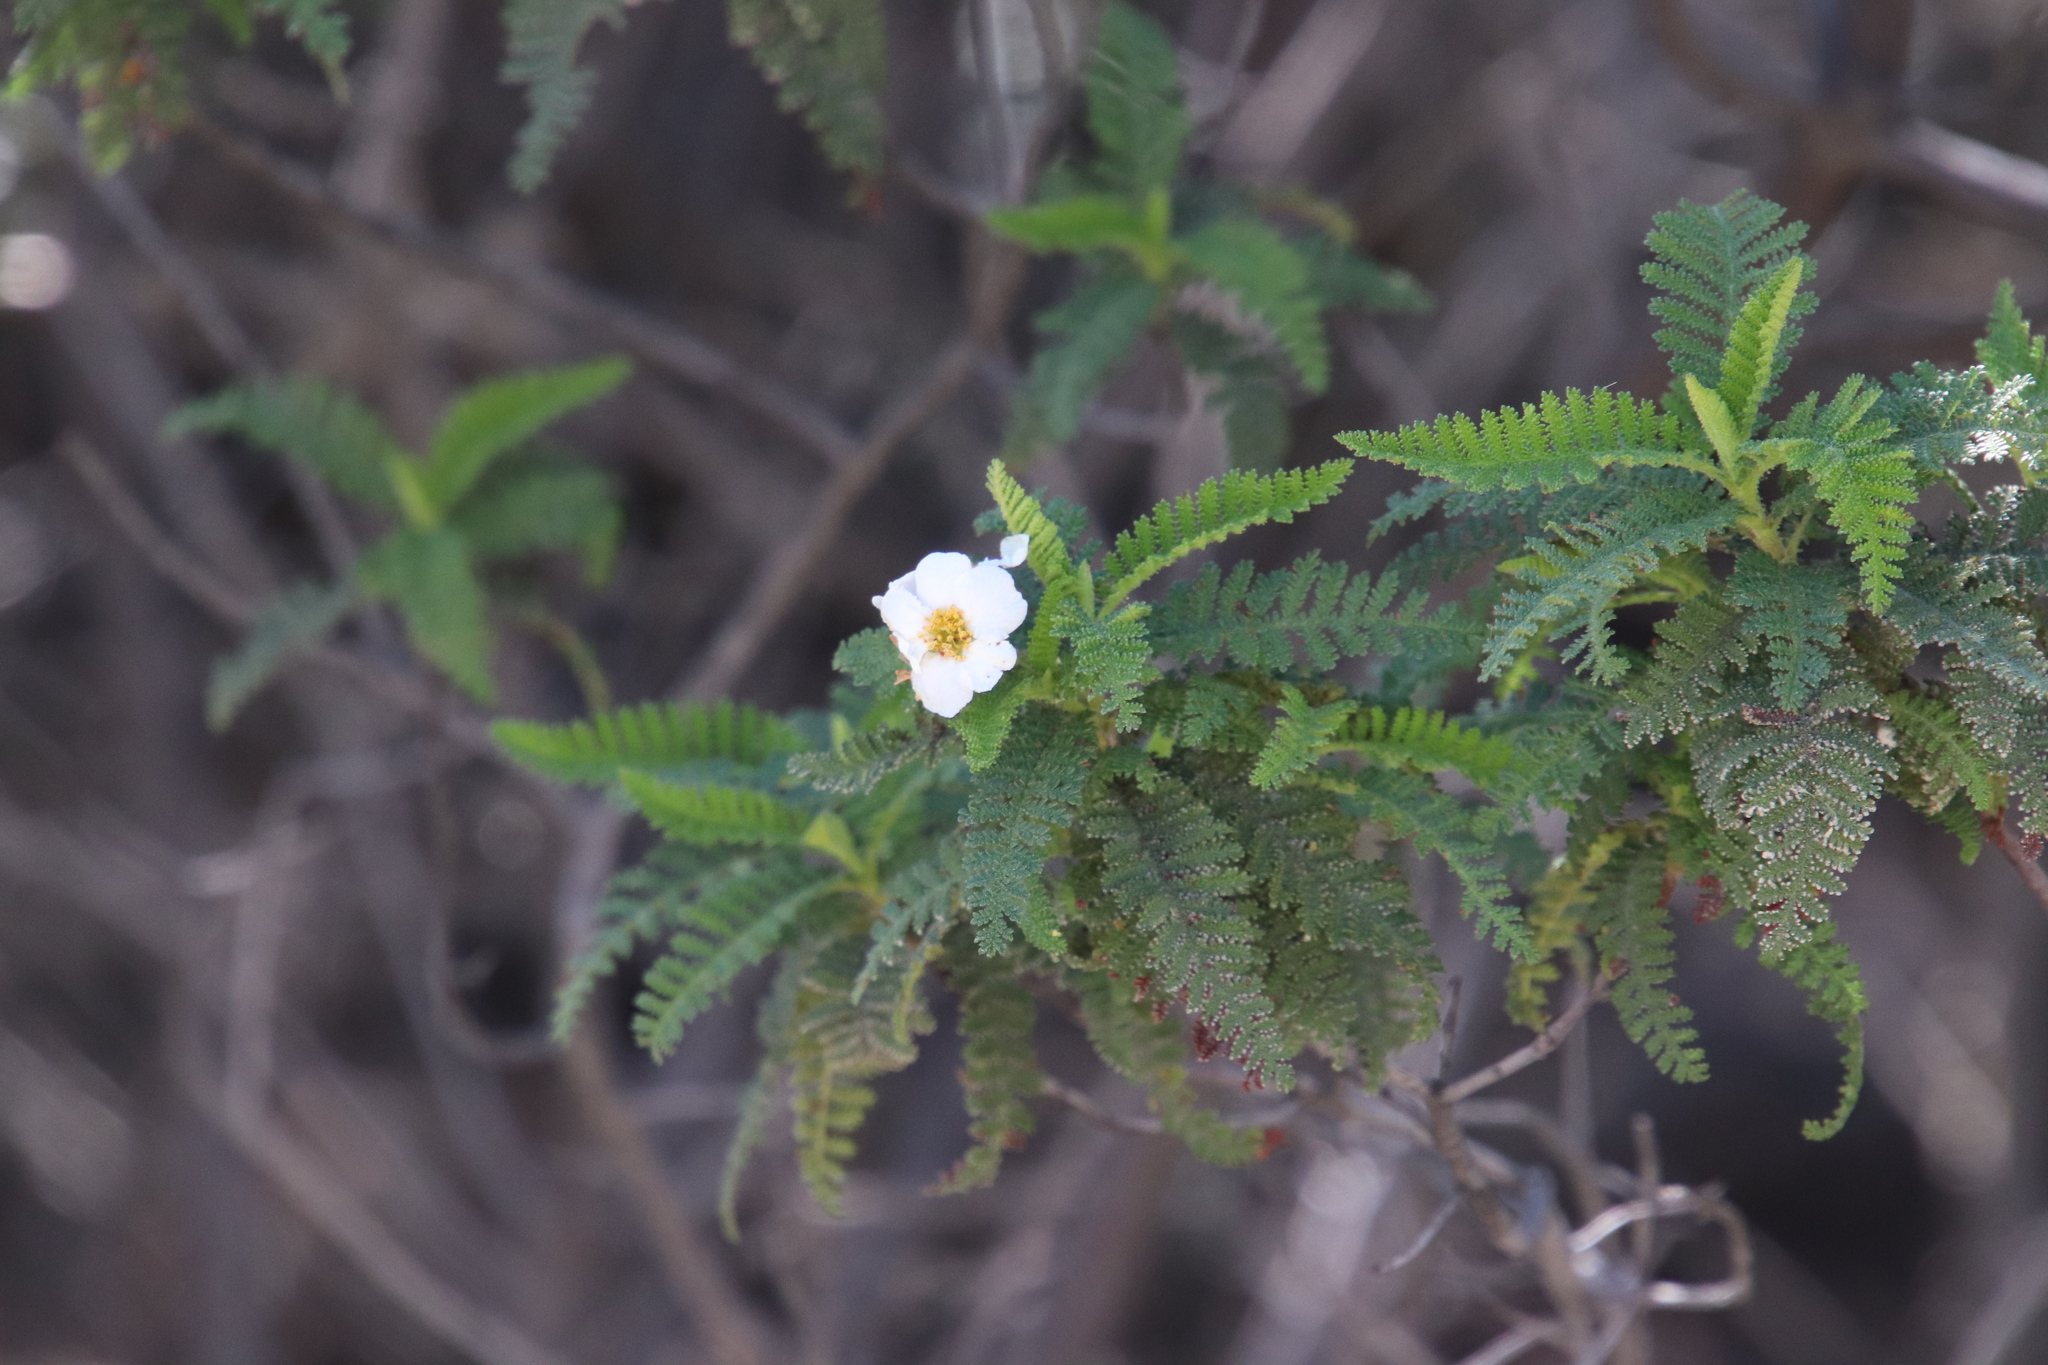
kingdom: Plantae
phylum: Tracheophyta
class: Magnoliopsida
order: Rosales
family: Rosaceae
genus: Chamaebatia
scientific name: Chamaebatia australis
